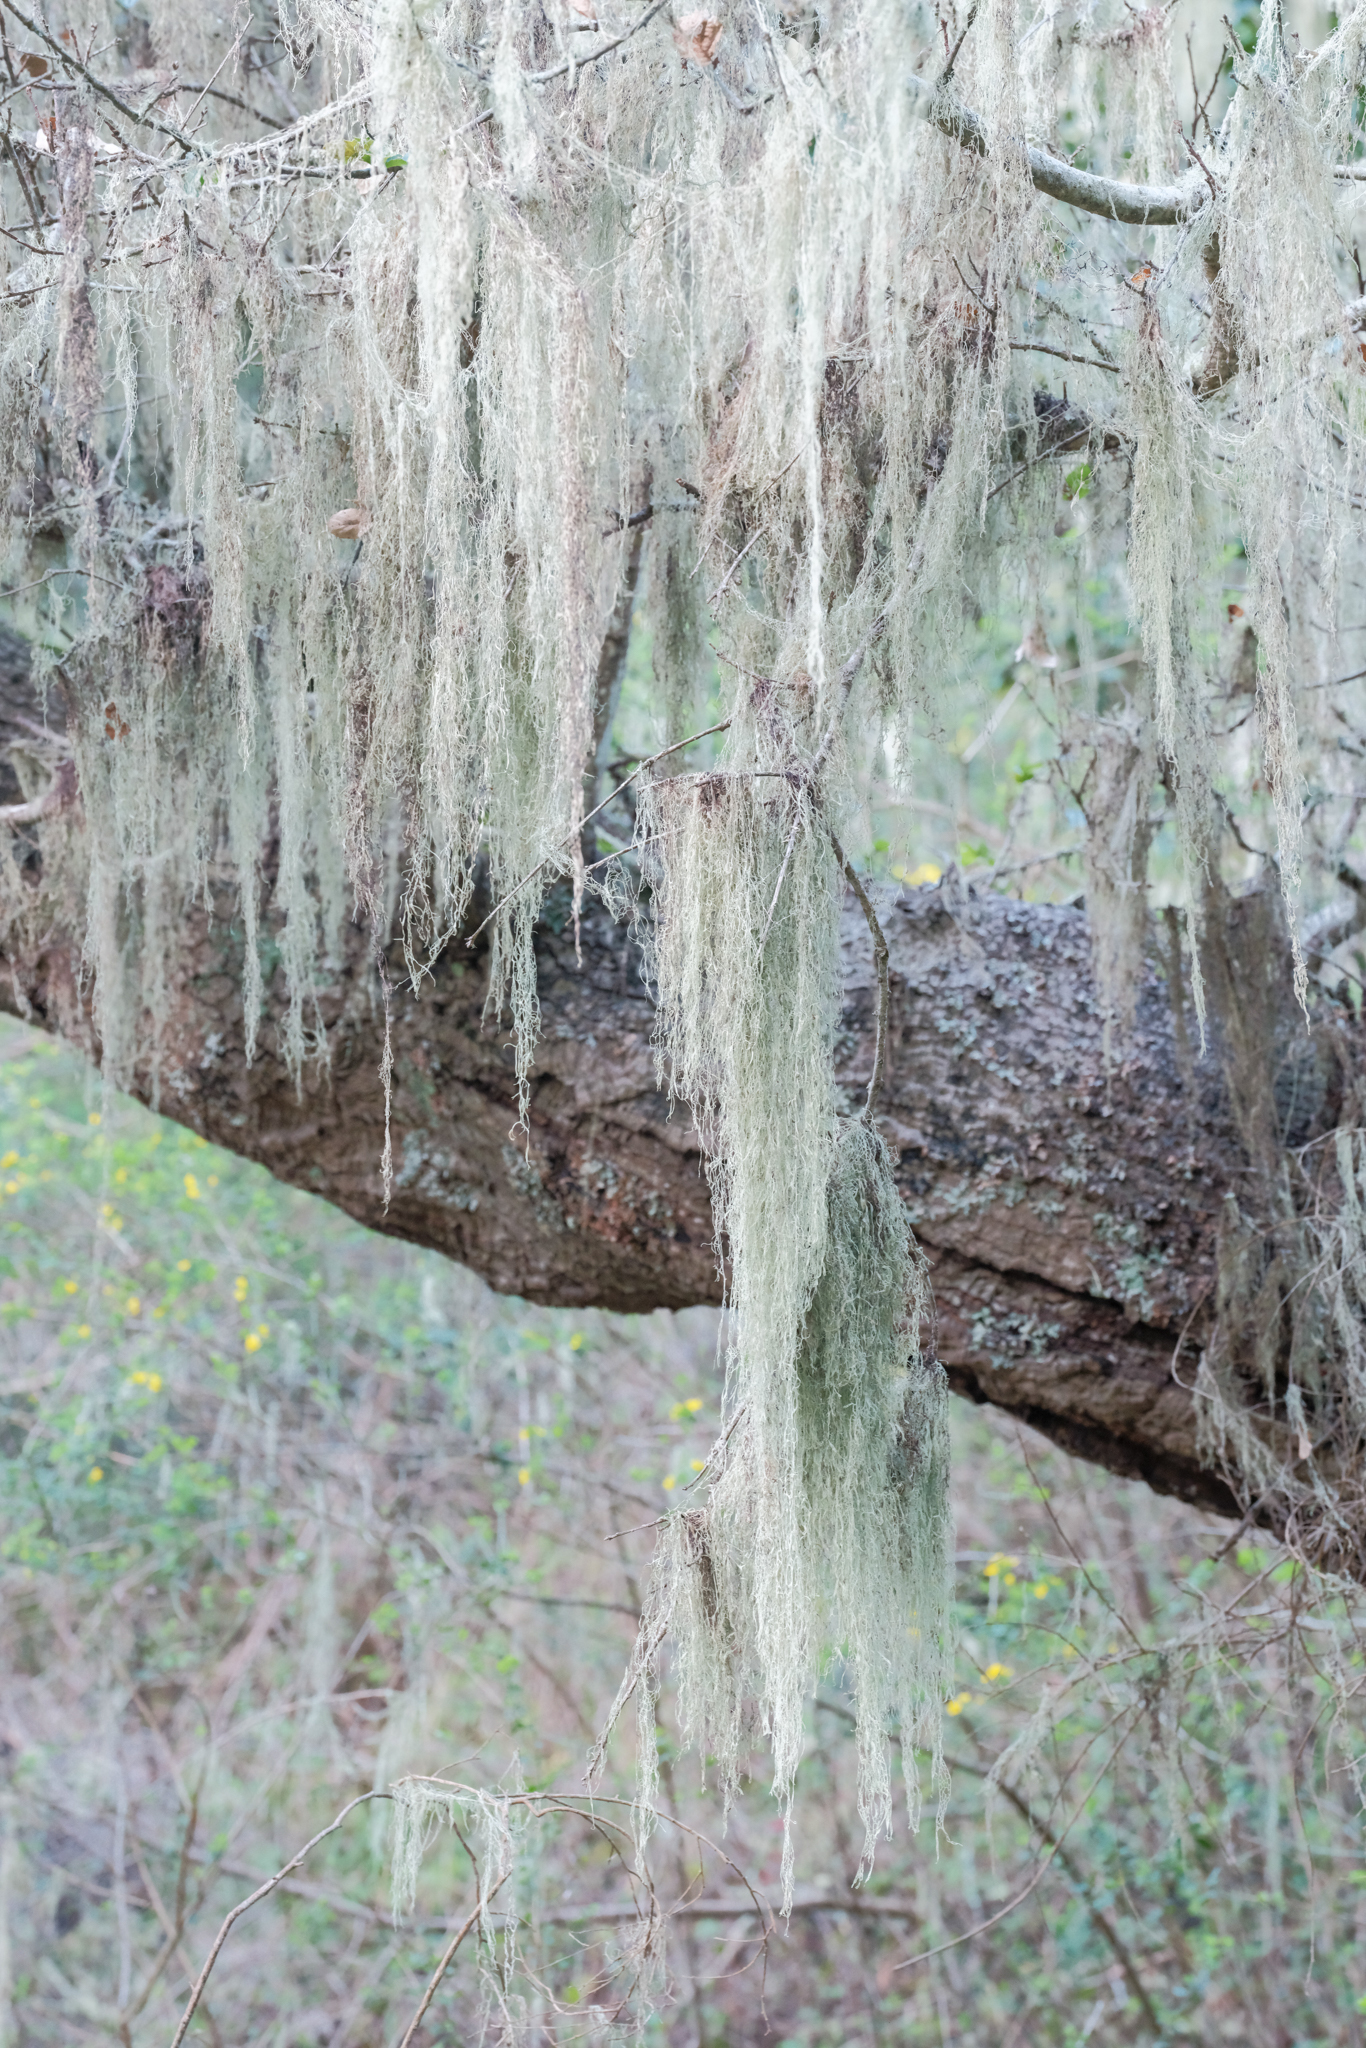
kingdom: Fungi
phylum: Ascomycota
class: Lecanoromycetes
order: Lecanorales
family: Ramalinaceae
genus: Ramalina
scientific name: Ramalina menziesii
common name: Lace lichen
